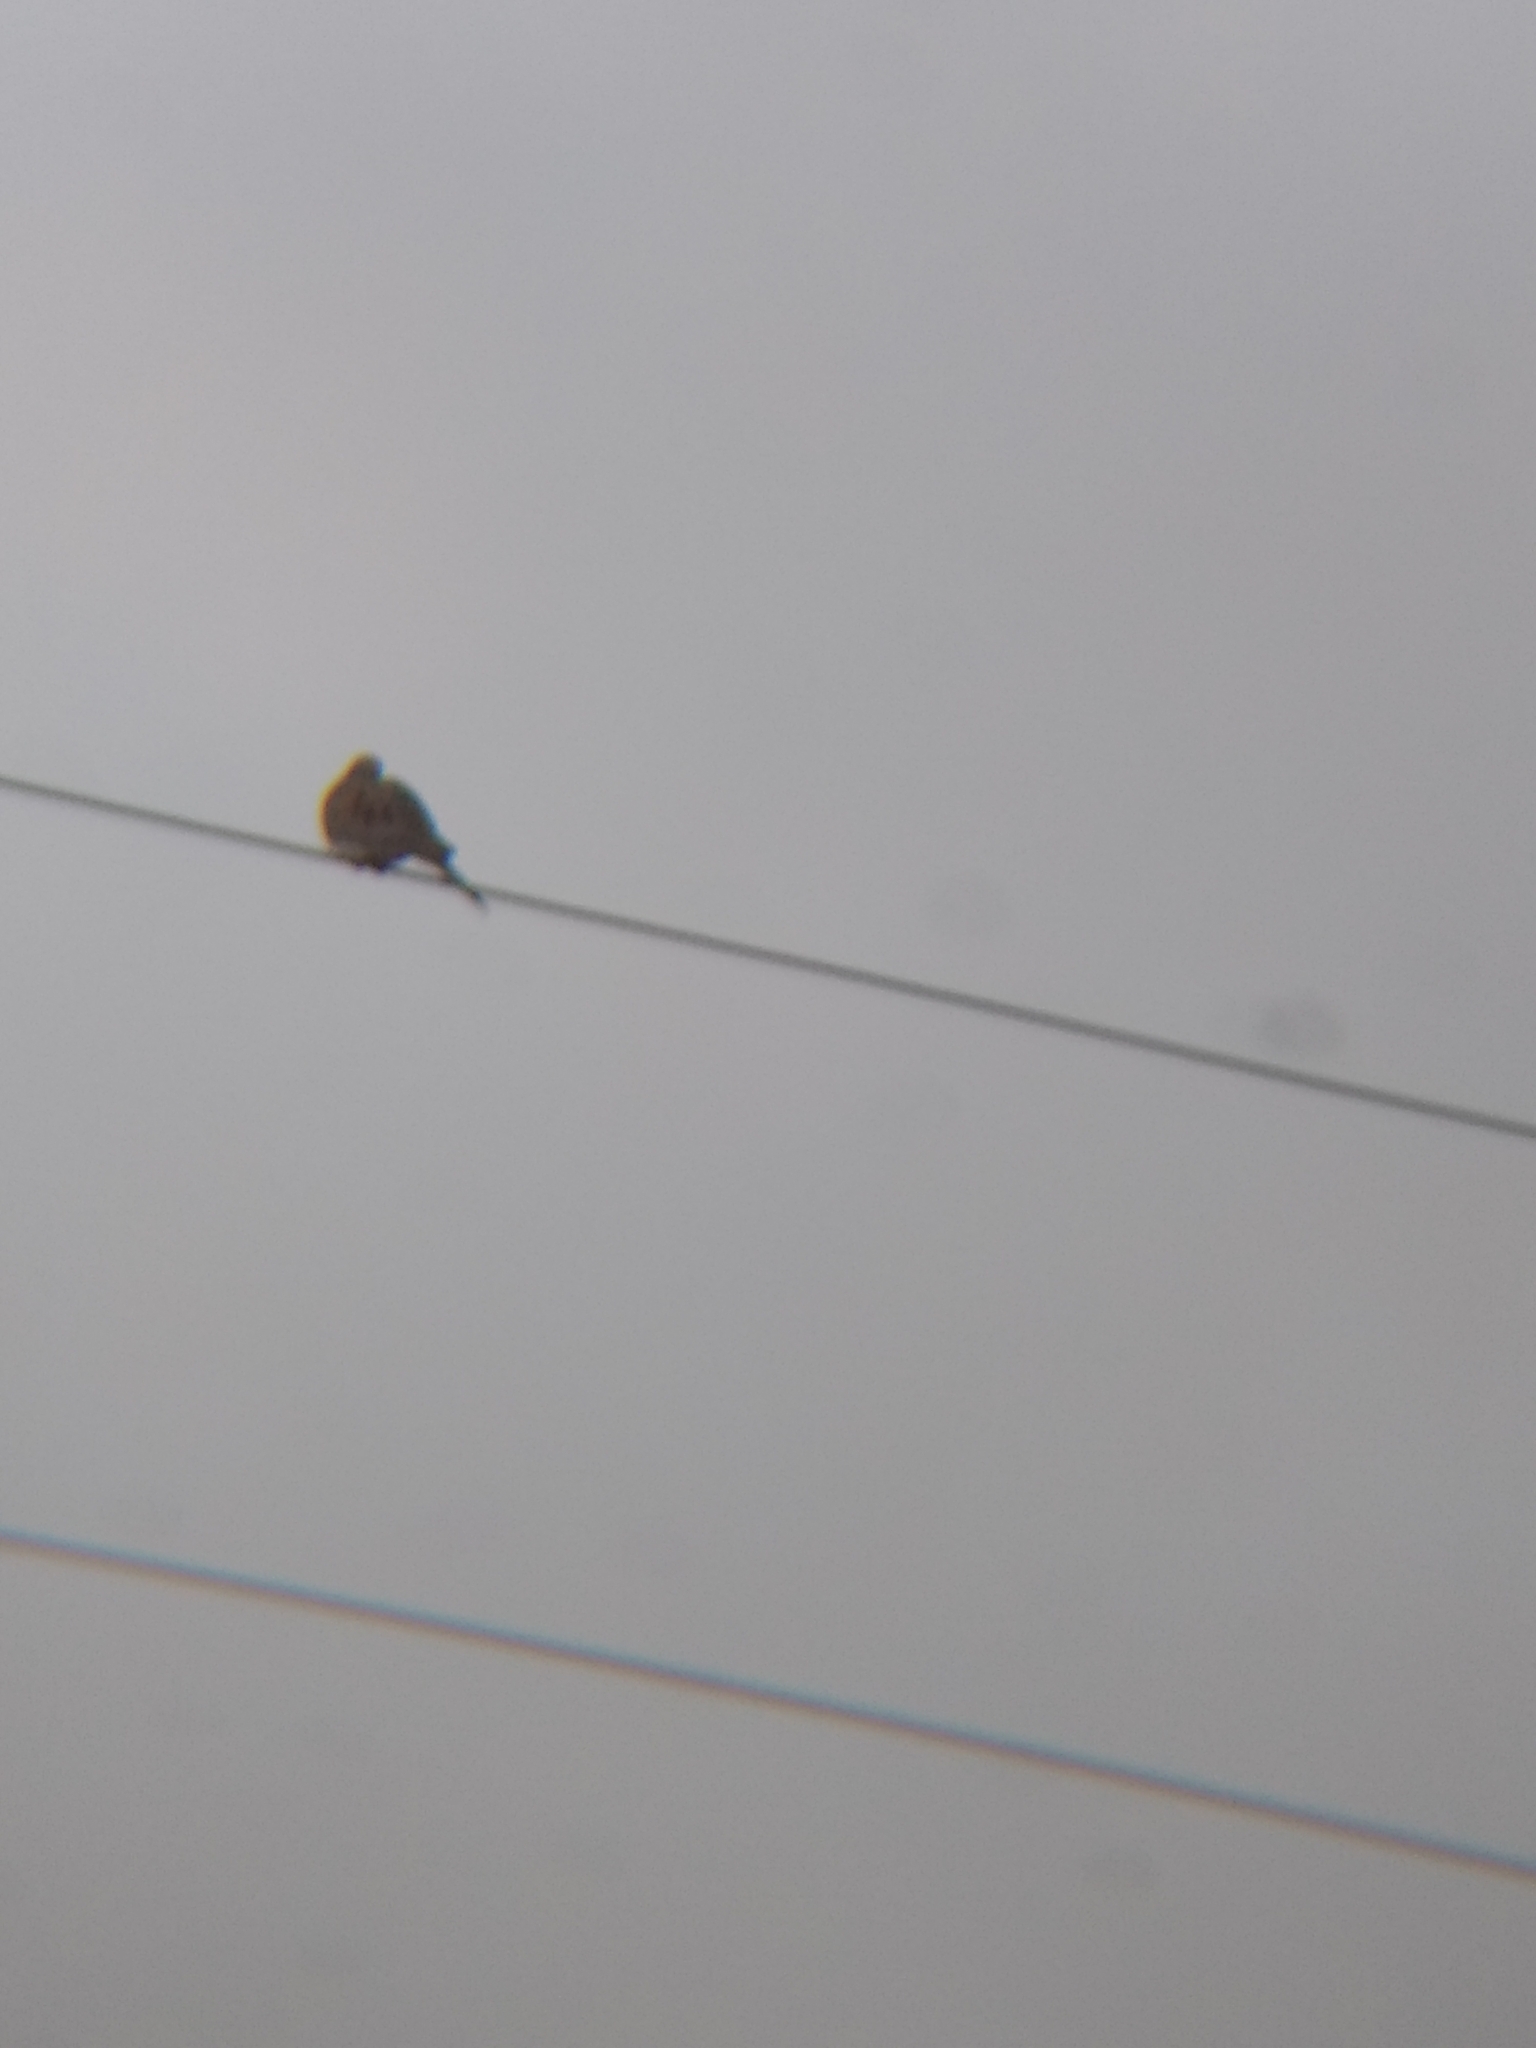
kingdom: Animalia
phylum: Chordata
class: Aves
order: Columbiformes
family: Columbidae
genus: Zenaida
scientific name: Zenaida macroura
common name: Mourning dove
